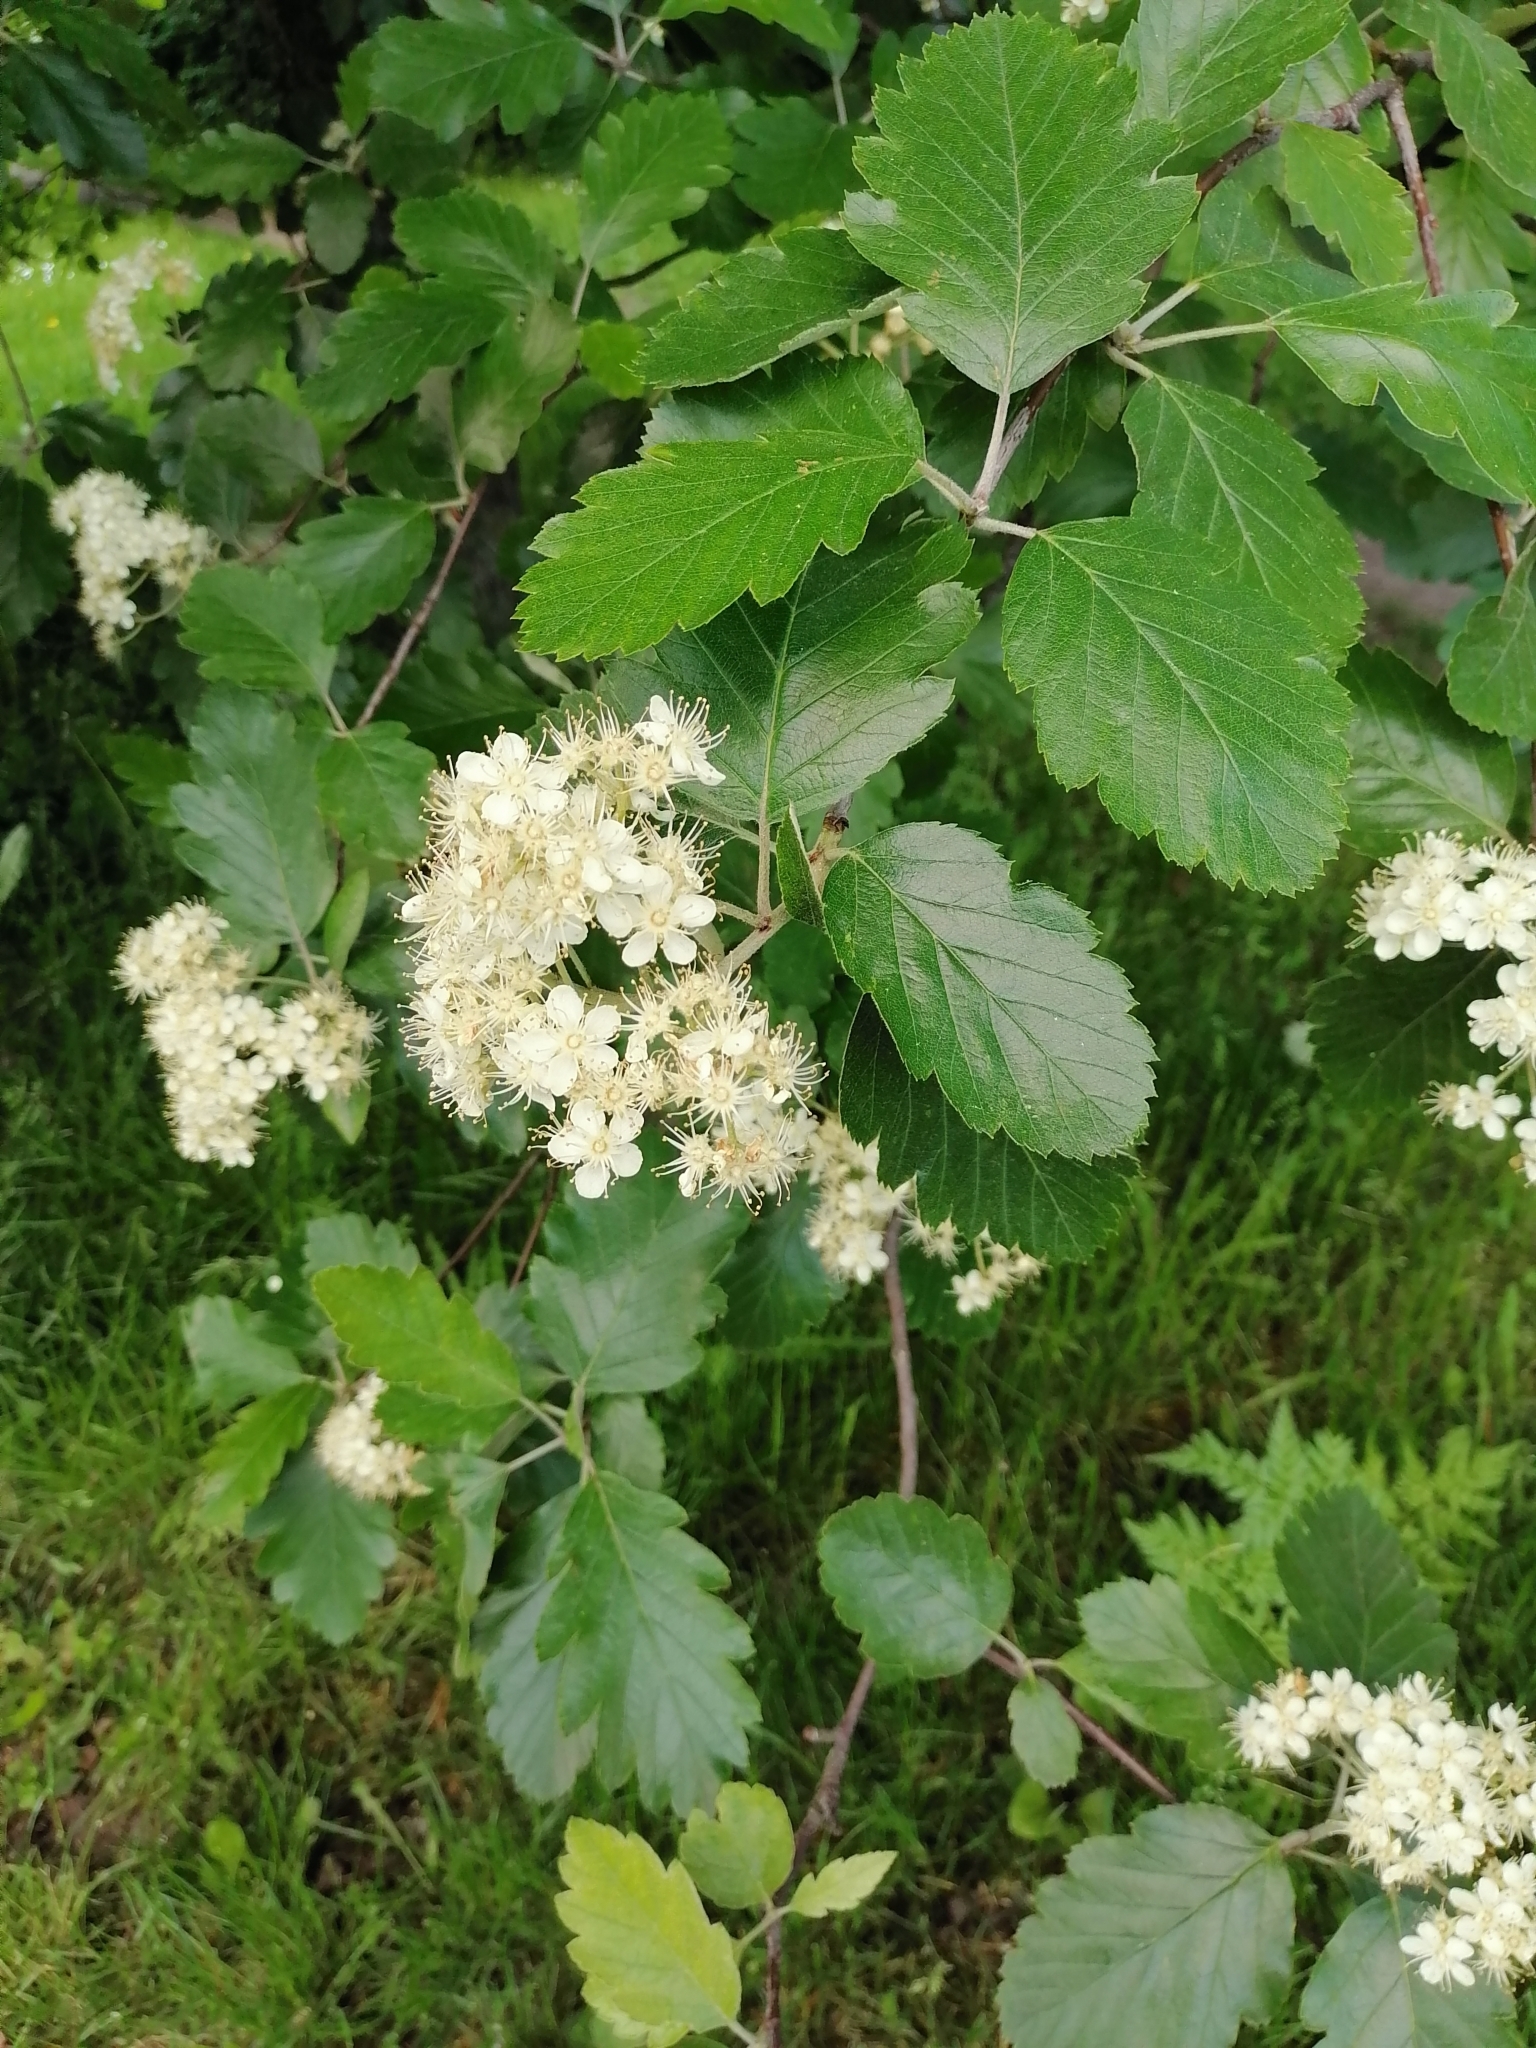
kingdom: Plantae
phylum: Tracheophyta
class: Magnoliopsida
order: Rosales
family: Rosaceae
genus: Scandosorbus
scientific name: Scandosorbus intermedia
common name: Swedish whitebeam
